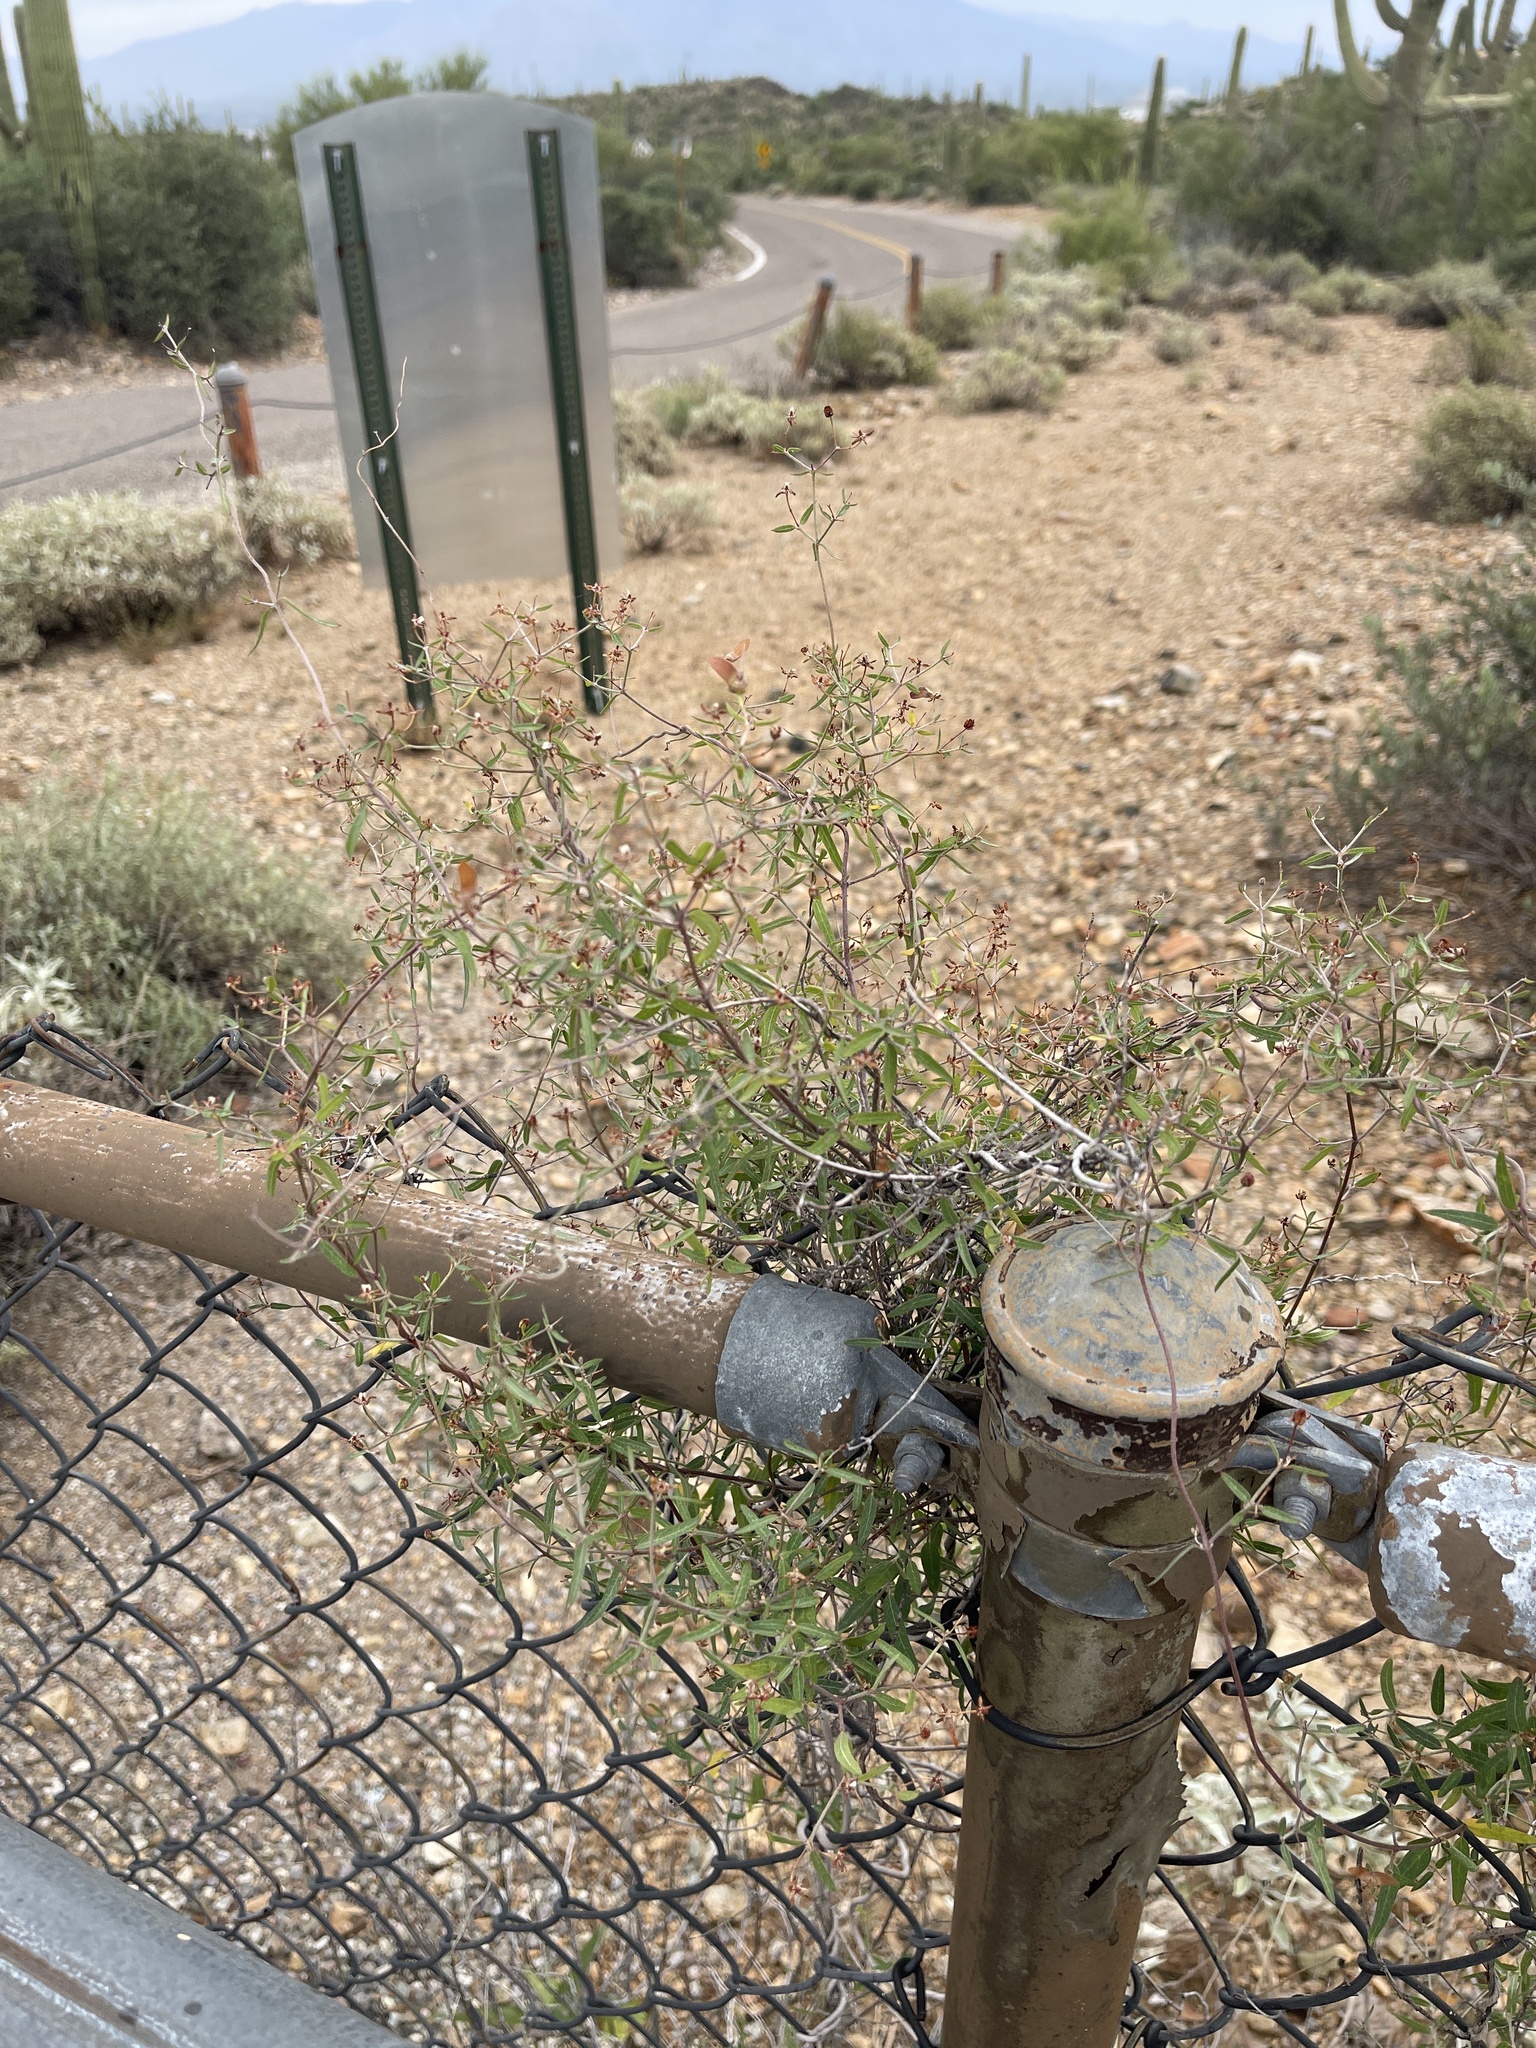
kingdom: Plantae
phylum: Tracheophyta
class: Magnoliopsida
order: Malpighiales
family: Malpighiaceae
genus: Cottsia
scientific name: Cottsia gracilis
